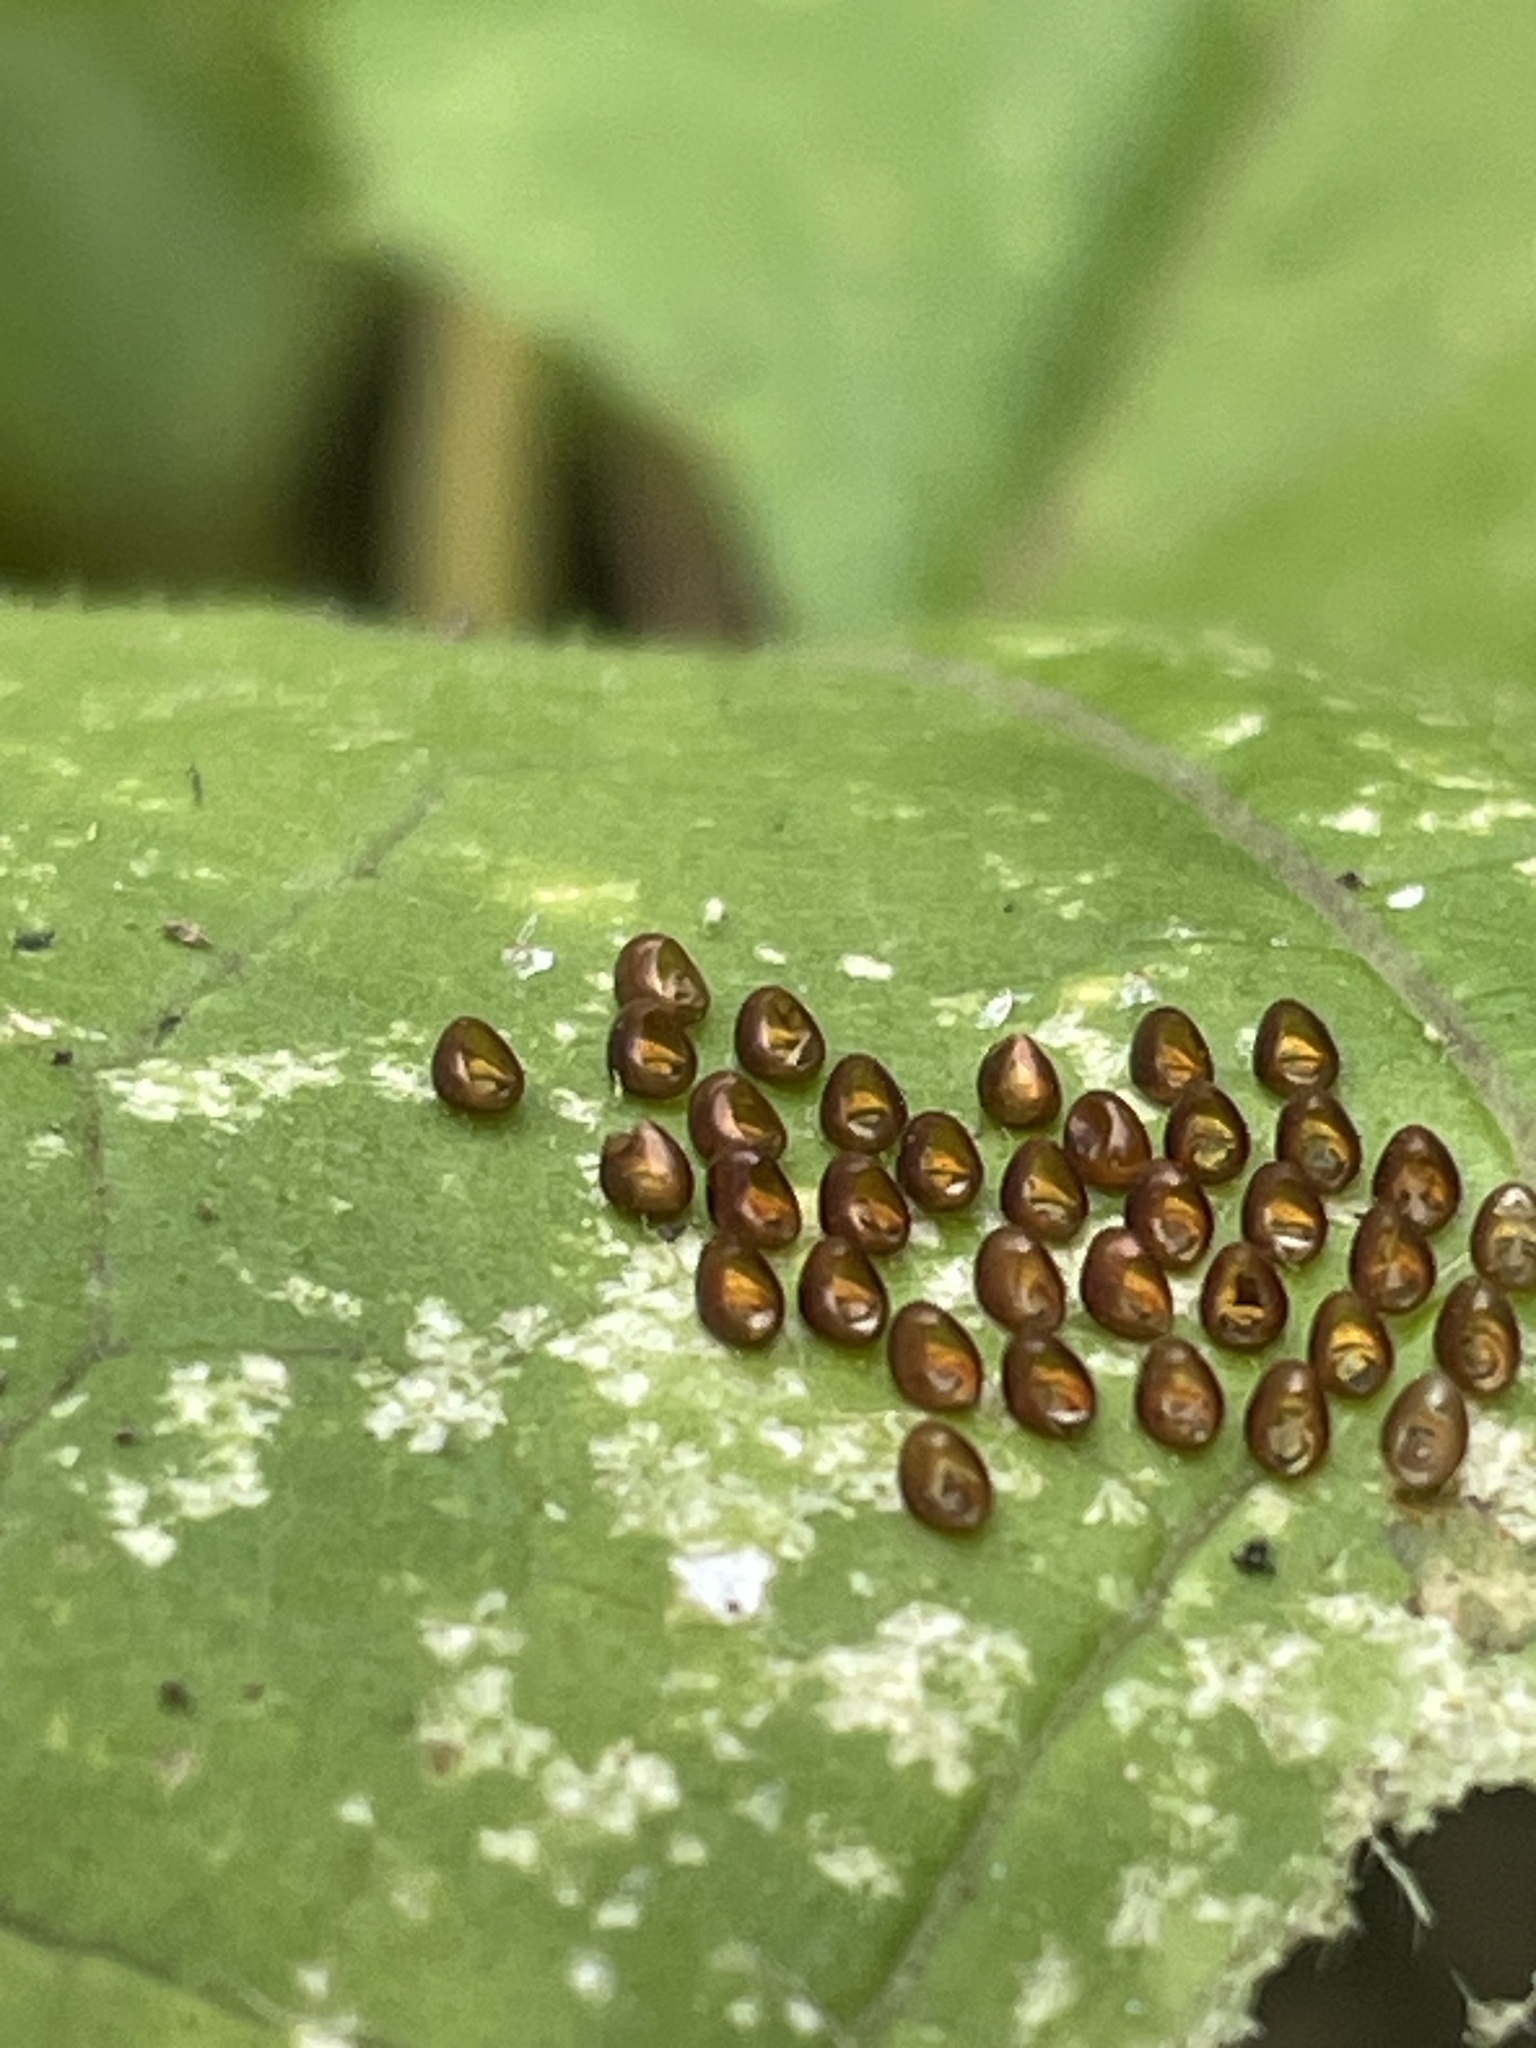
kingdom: Animalia
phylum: Arthropoda
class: Insecta
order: Hemiptera
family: Coreidae
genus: Anasa
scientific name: Anasa tristis
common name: Squash bug
